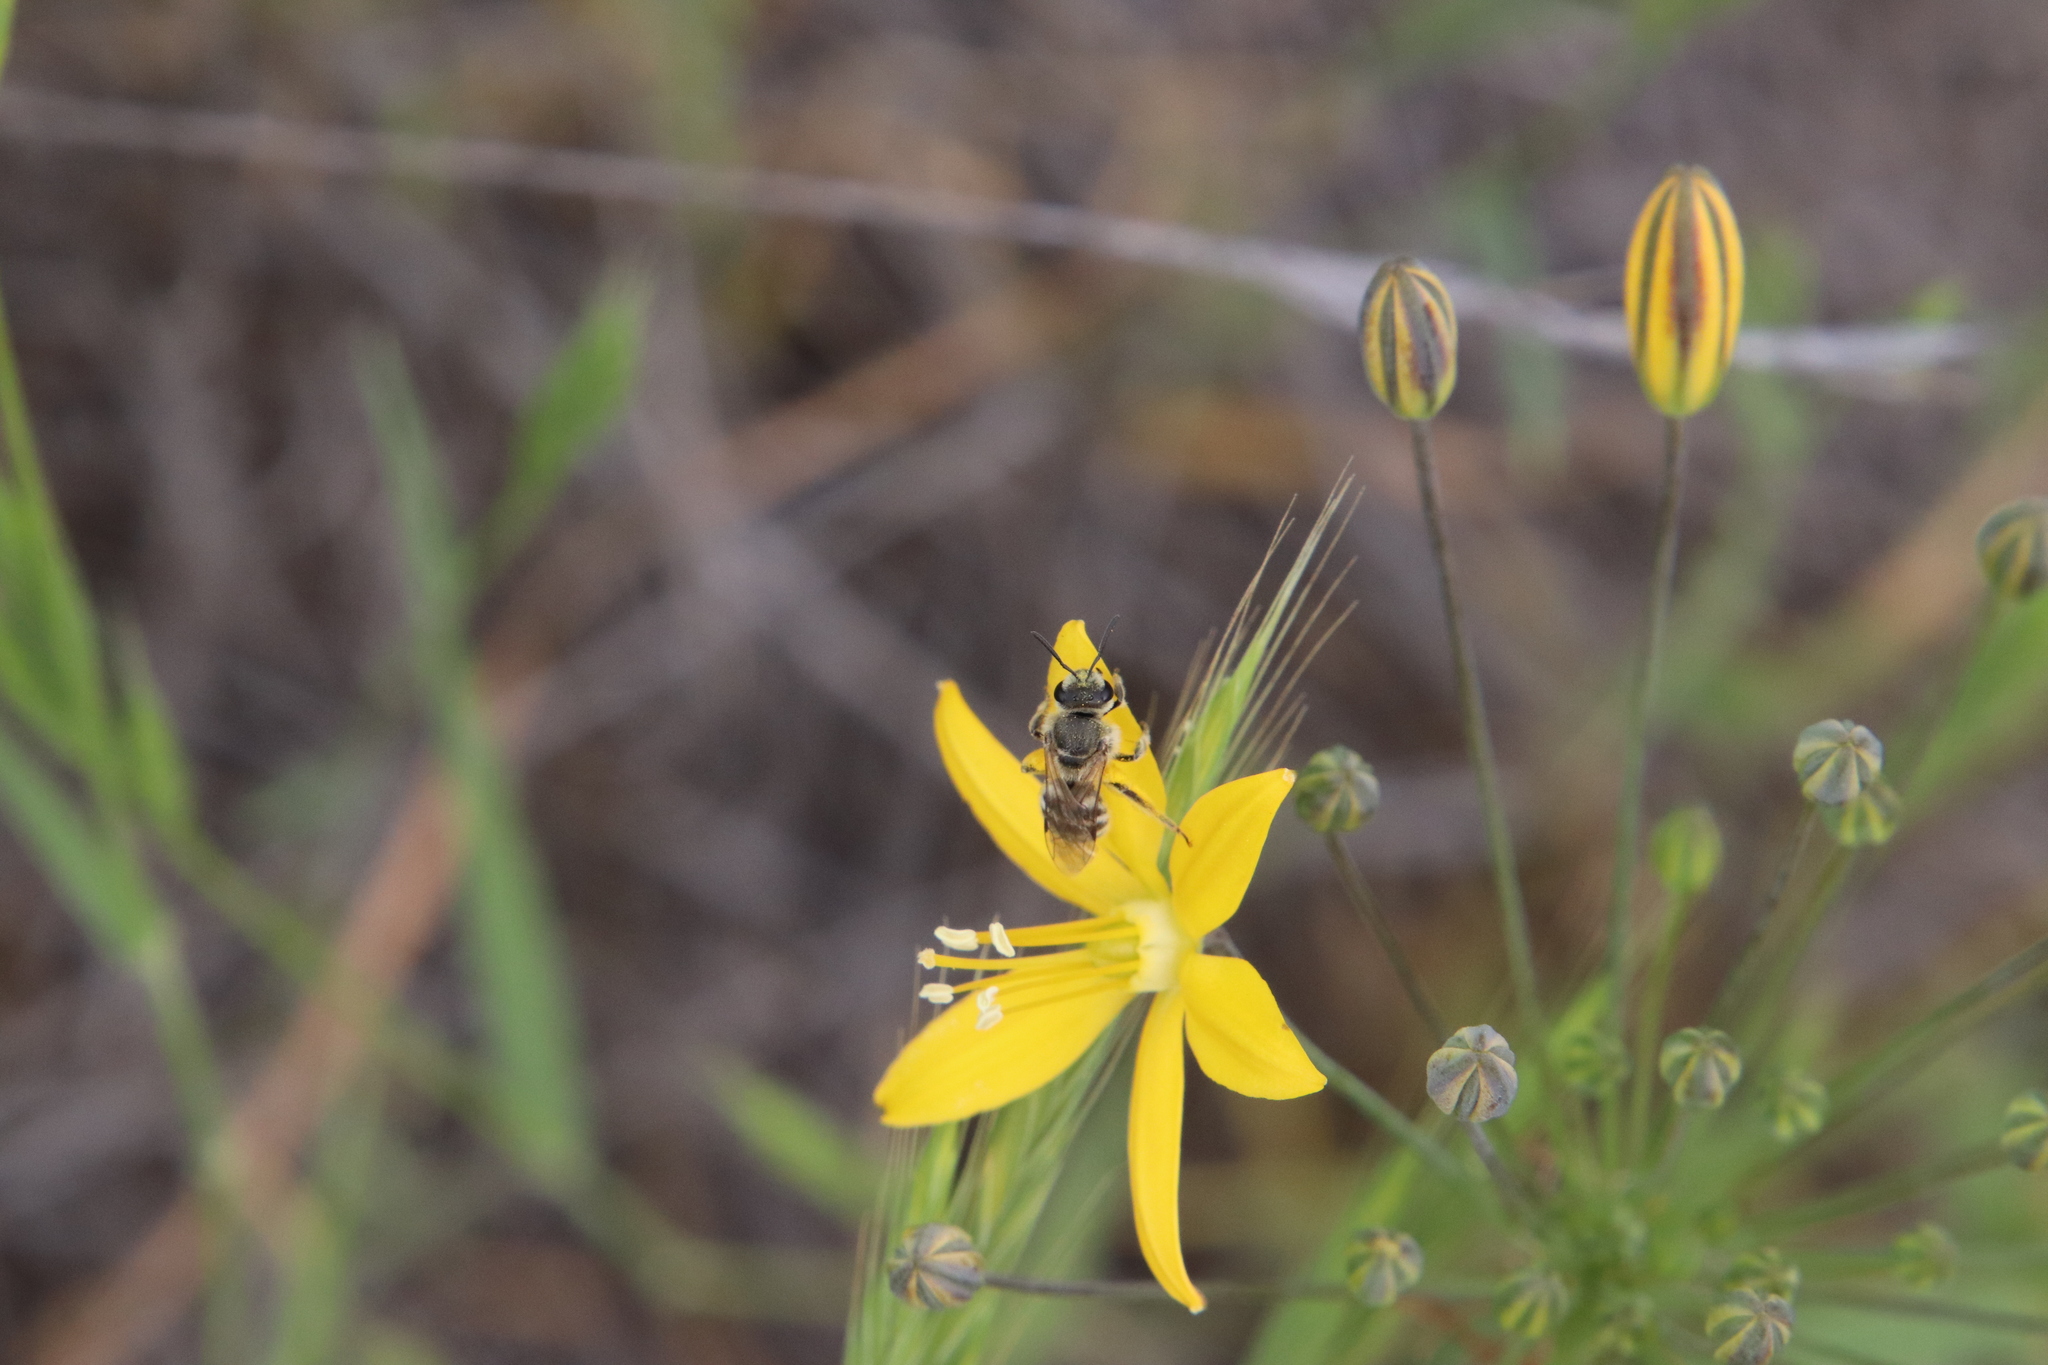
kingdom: Animalia
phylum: Arthropoda
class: Insecta
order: Hymenoptera
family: Halictidae
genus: Lasioglossum
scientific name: Lasioglossum sisymbrii
